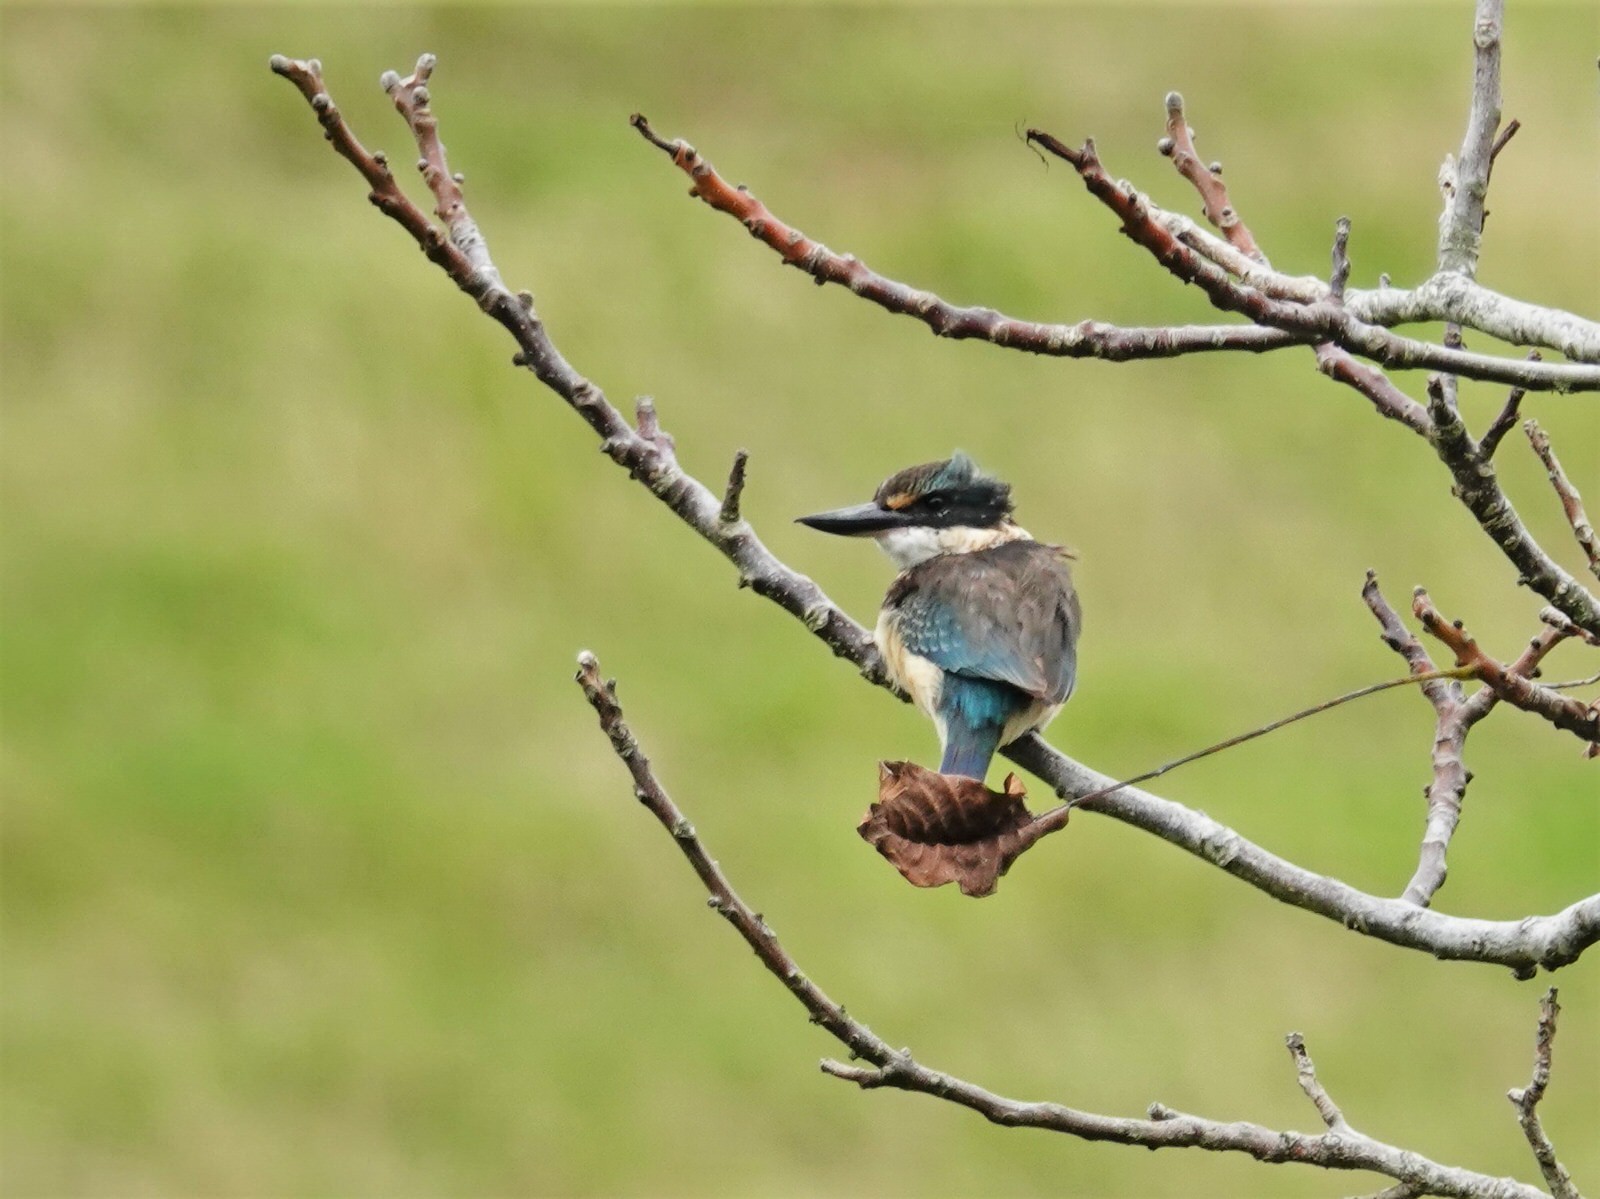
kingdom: Animalia
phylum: Chordata
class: Aves
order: Coraciiformes
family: Alcedinidae
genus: Todiramphus
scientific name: Todiramphus sanctus
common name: Sacred kingfisher
